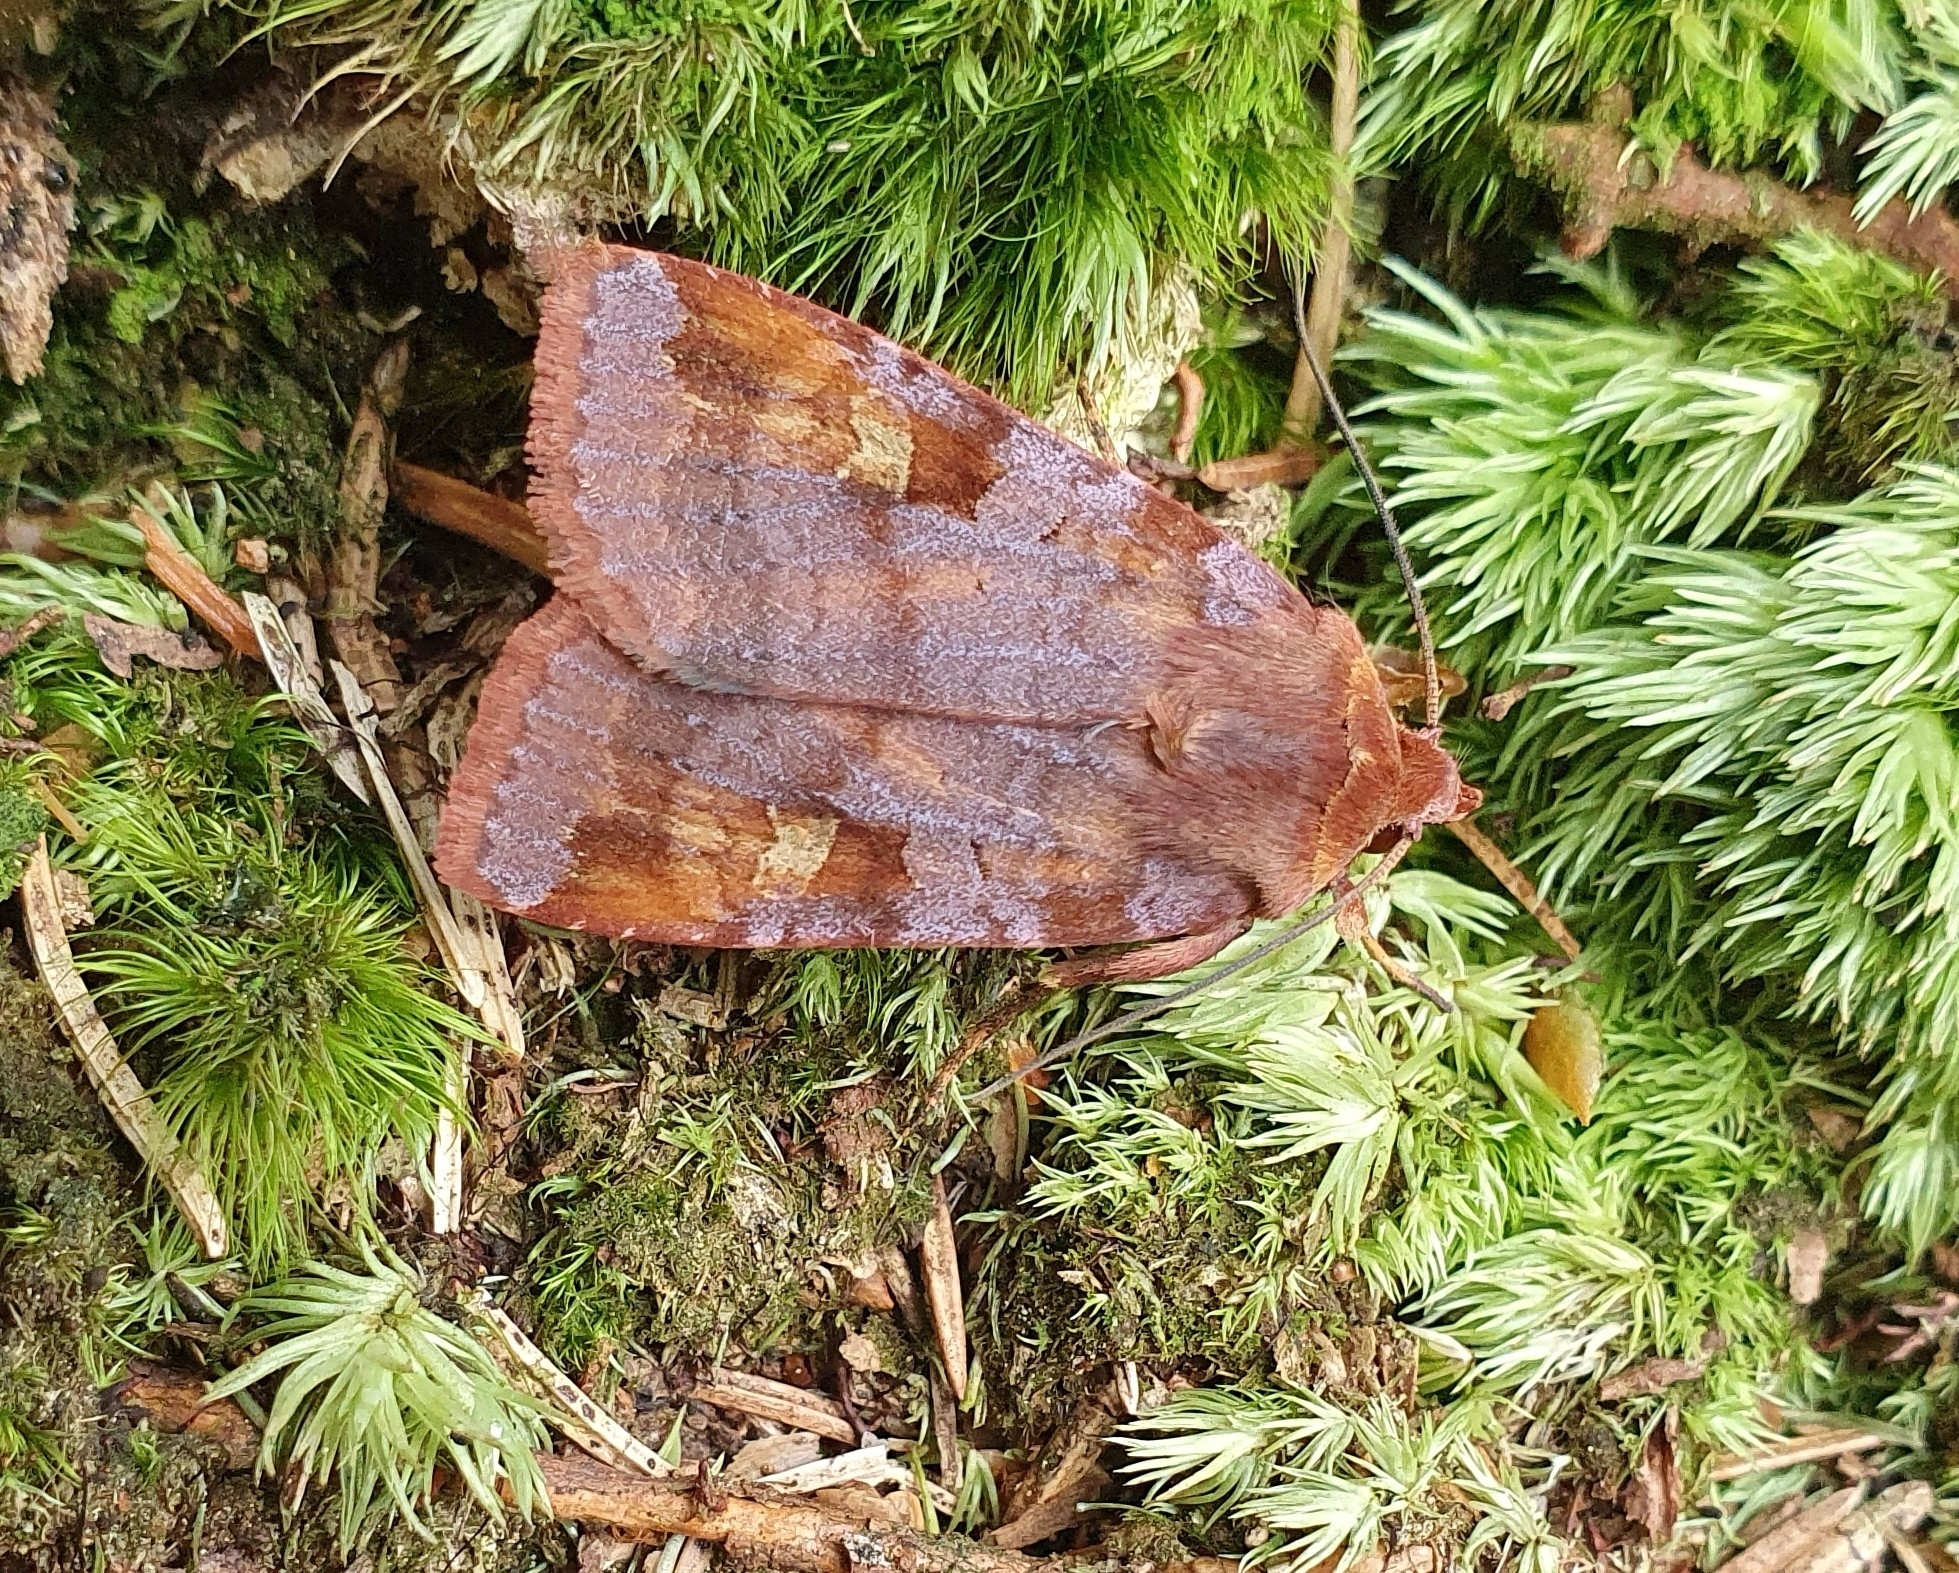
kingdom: Animalia
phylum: Arthropoda
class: Insecta
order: Lepidoptera
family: Noctuidae
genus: Diarsia
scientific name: Diarsia brunnea
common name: Purple clay
